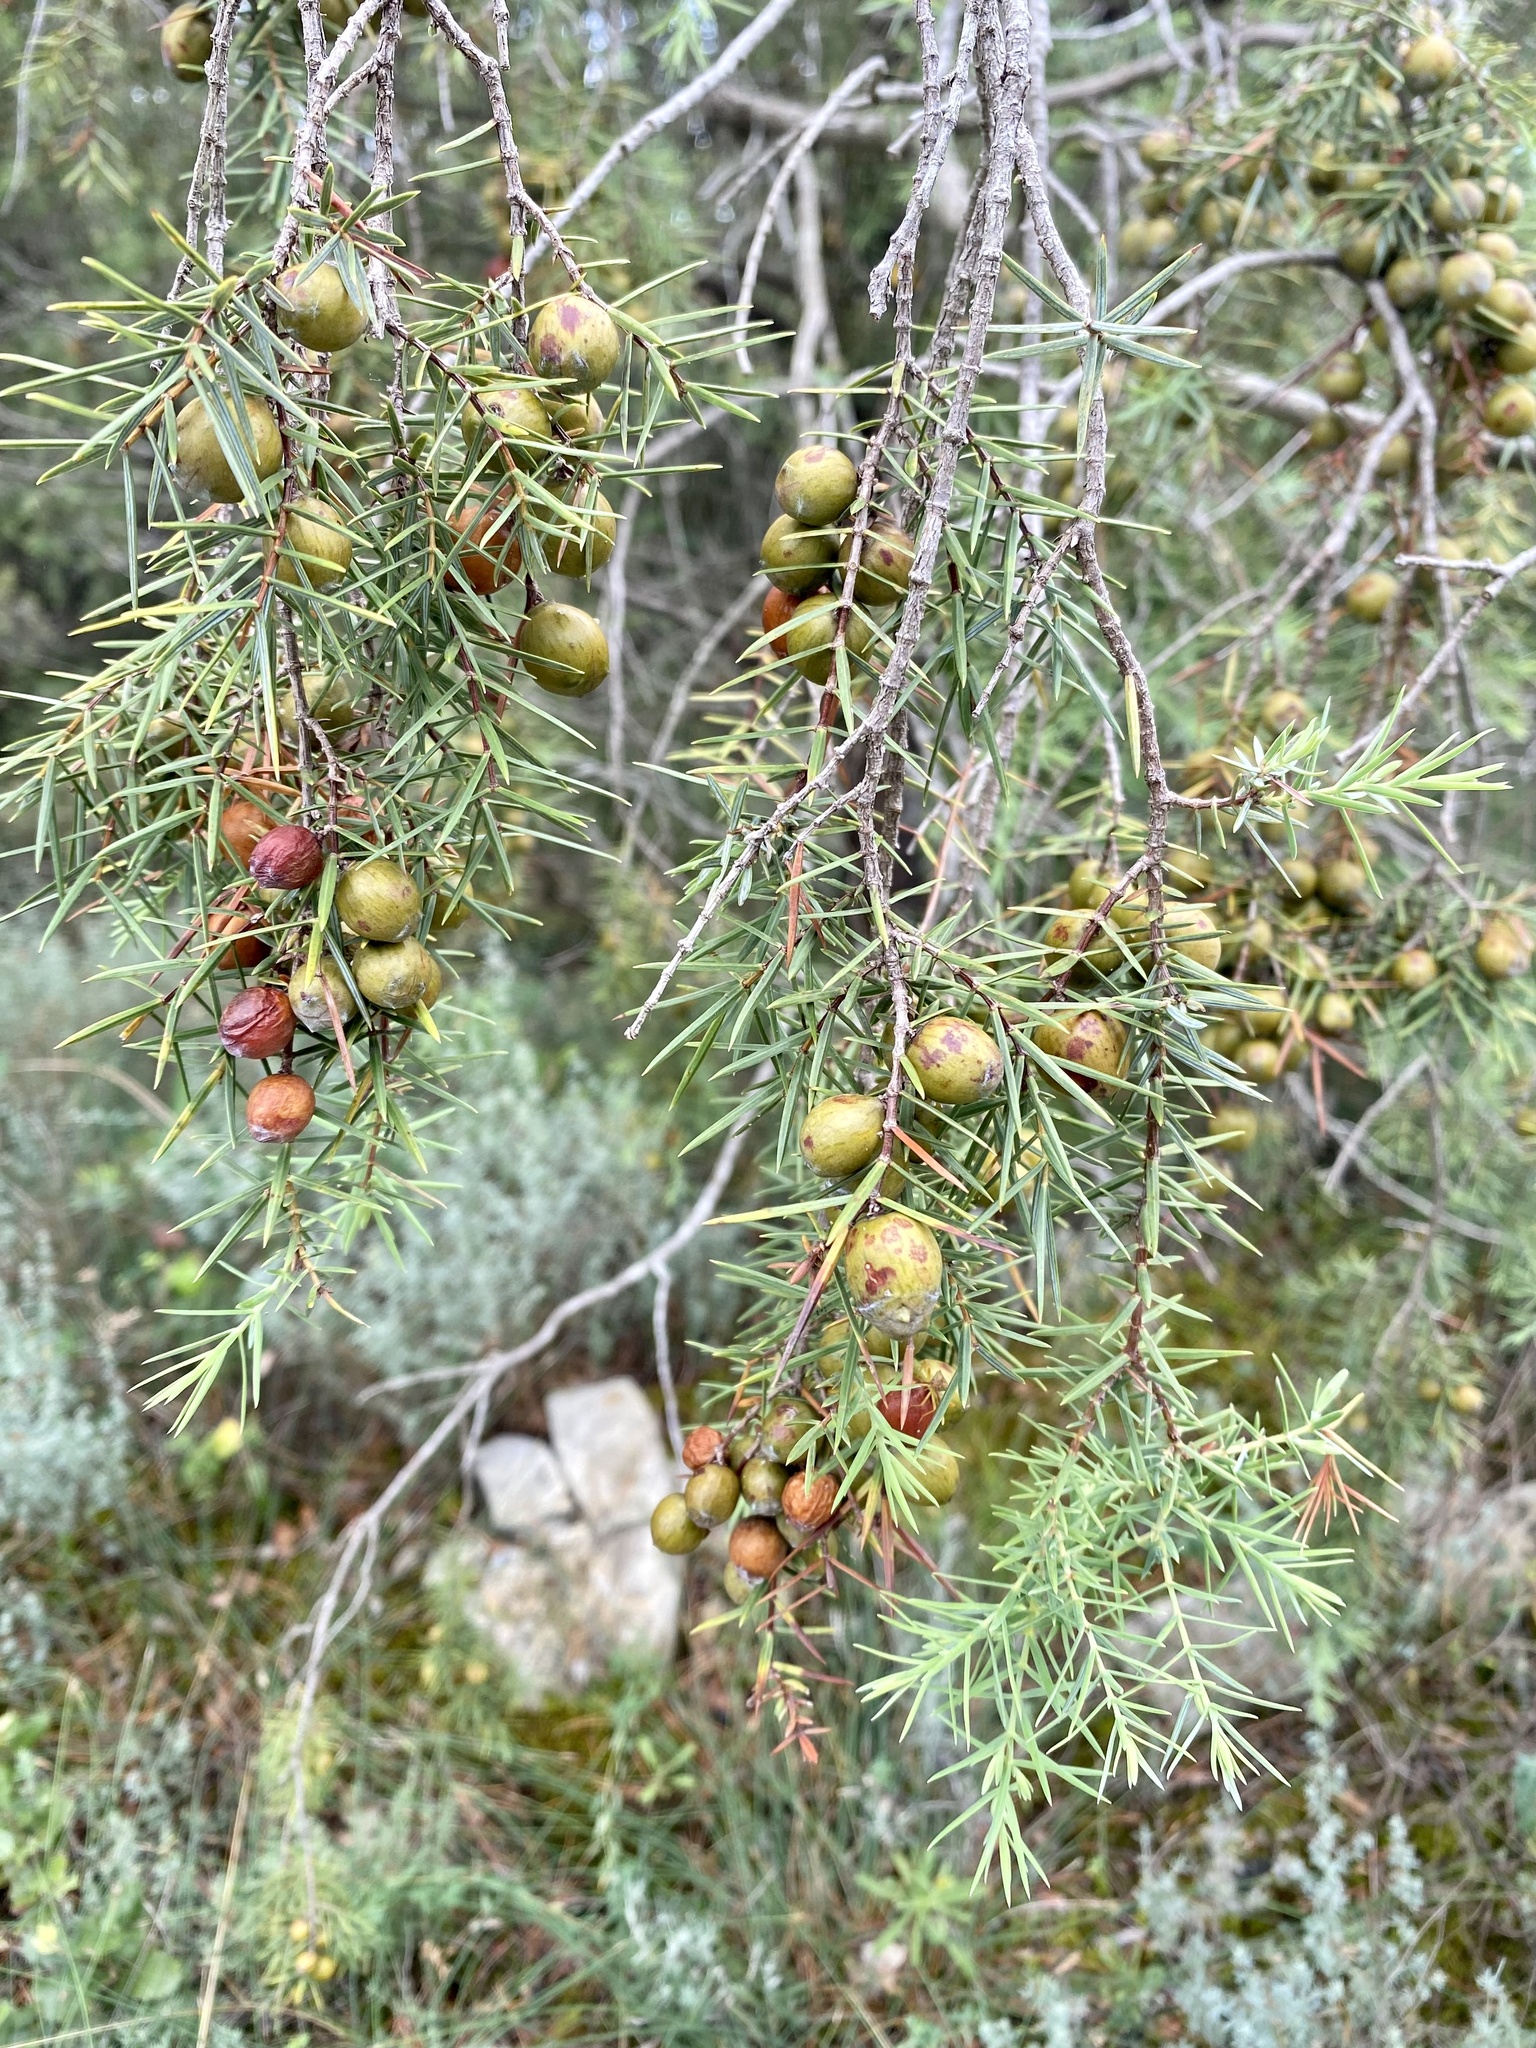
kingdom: Plantae
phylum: Tracheophyta
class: Pinopsida
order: Pinales
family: Cupressaceae
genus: Juniperus
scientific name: Juniperus oxycedrus
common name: Prickly juniper
